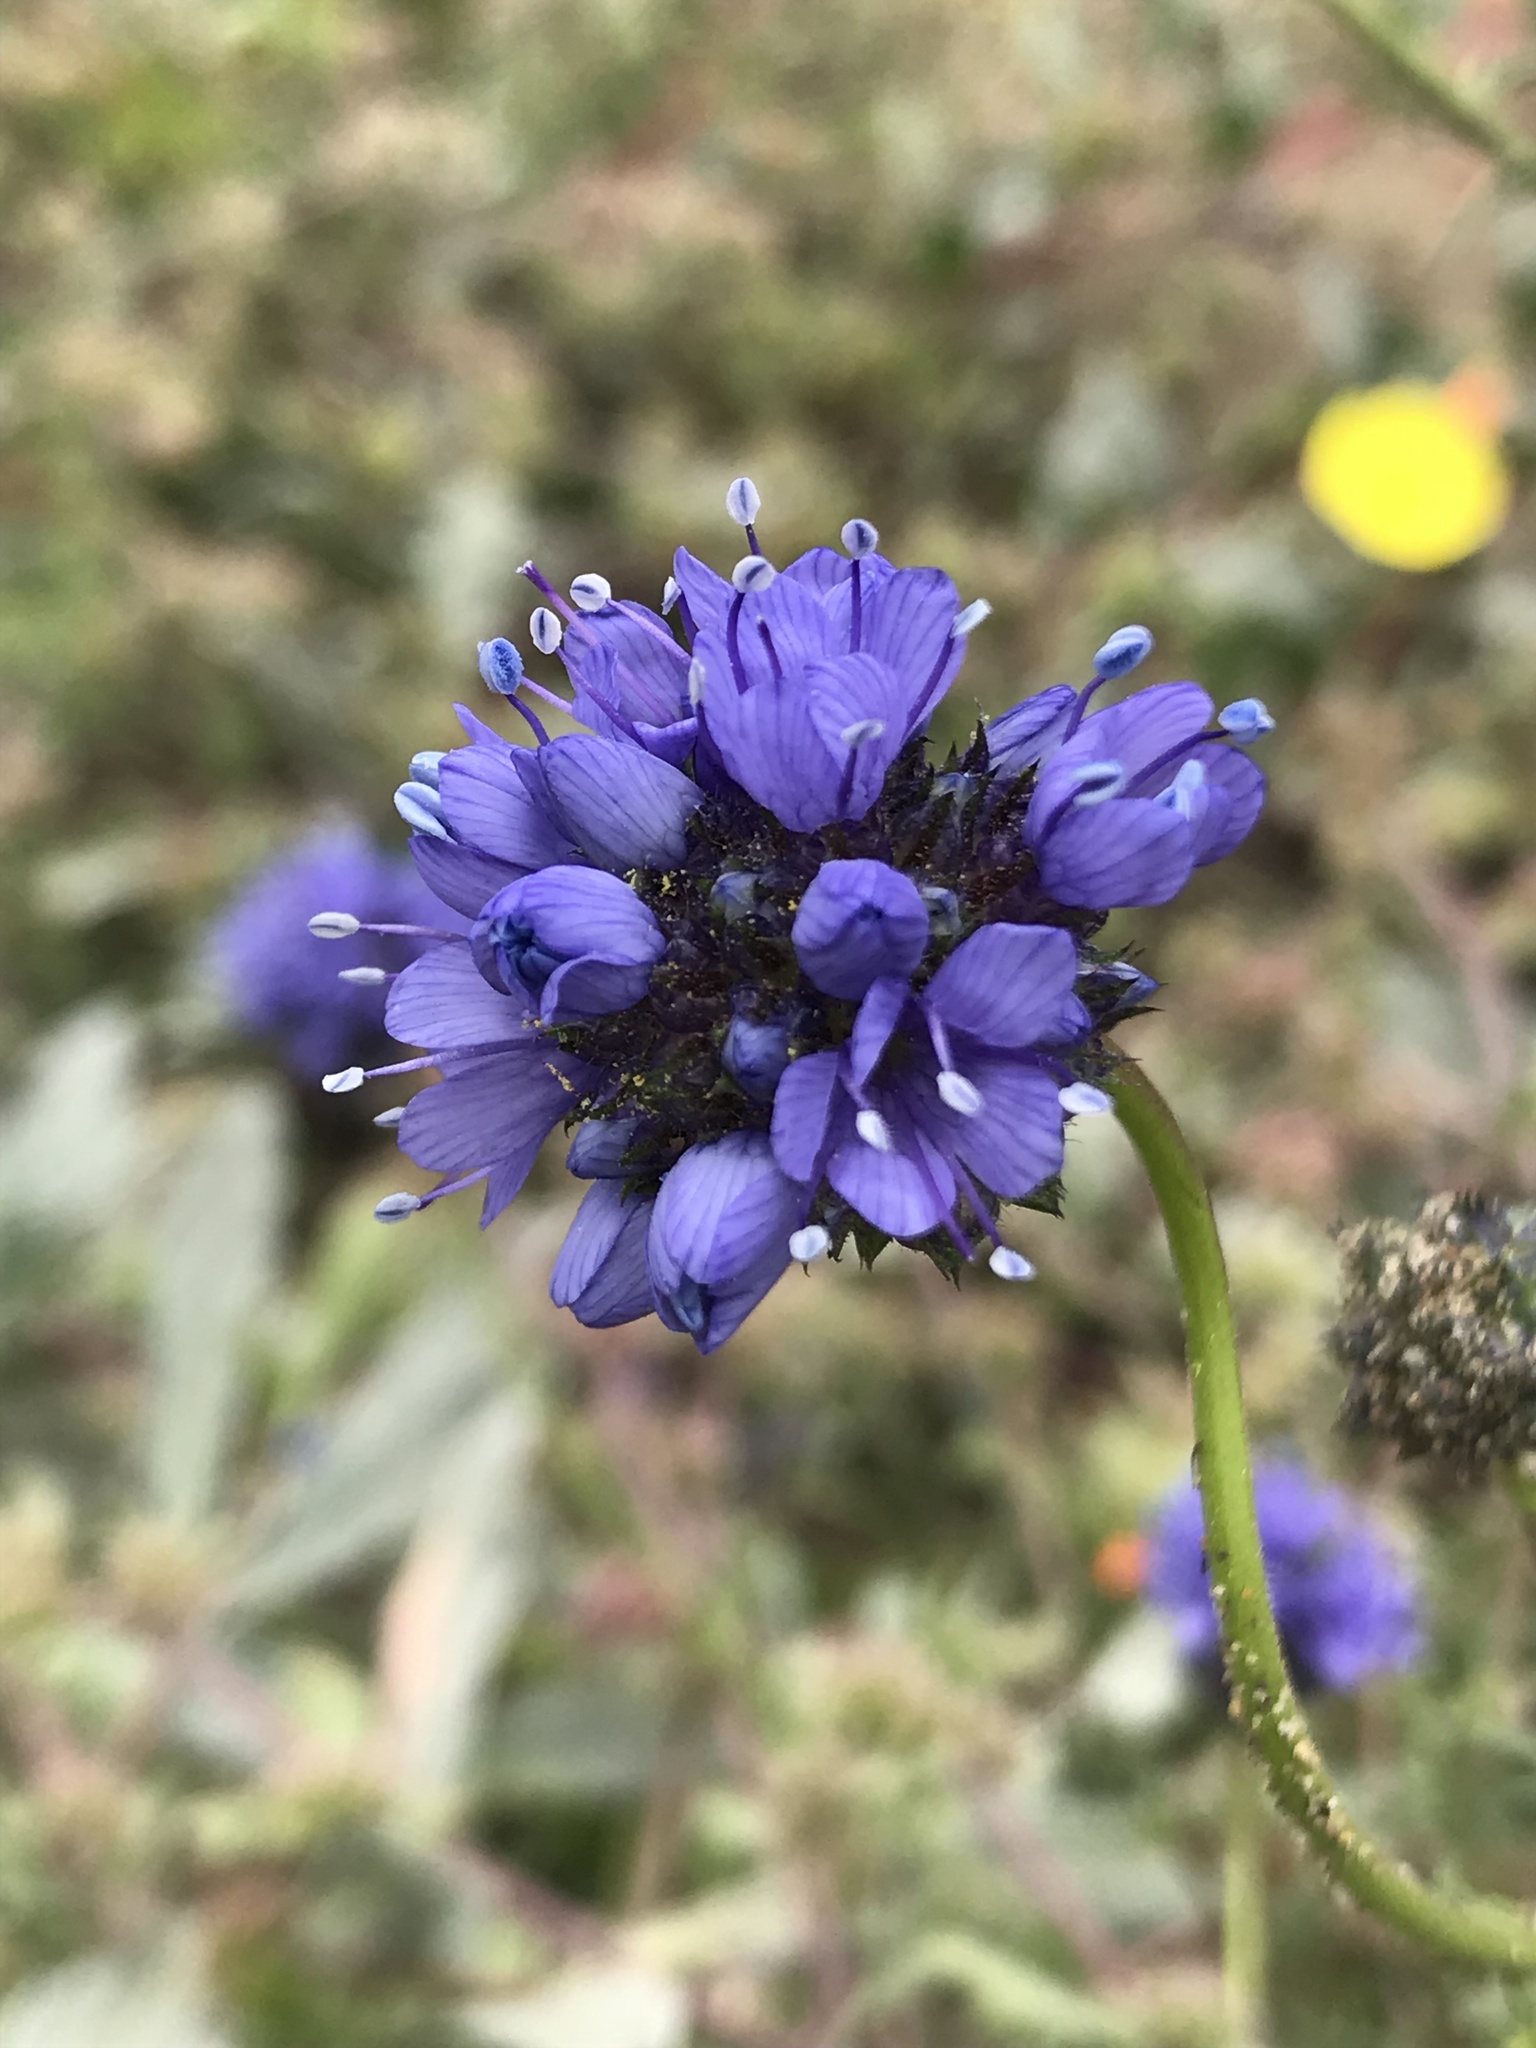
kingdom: Plantae
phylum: Tracheophyta
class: Magnoliopsida
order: Ericales
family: Polemoniaceae
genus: Gilia
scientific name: Gilia capitata
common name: Bluehead gilia
